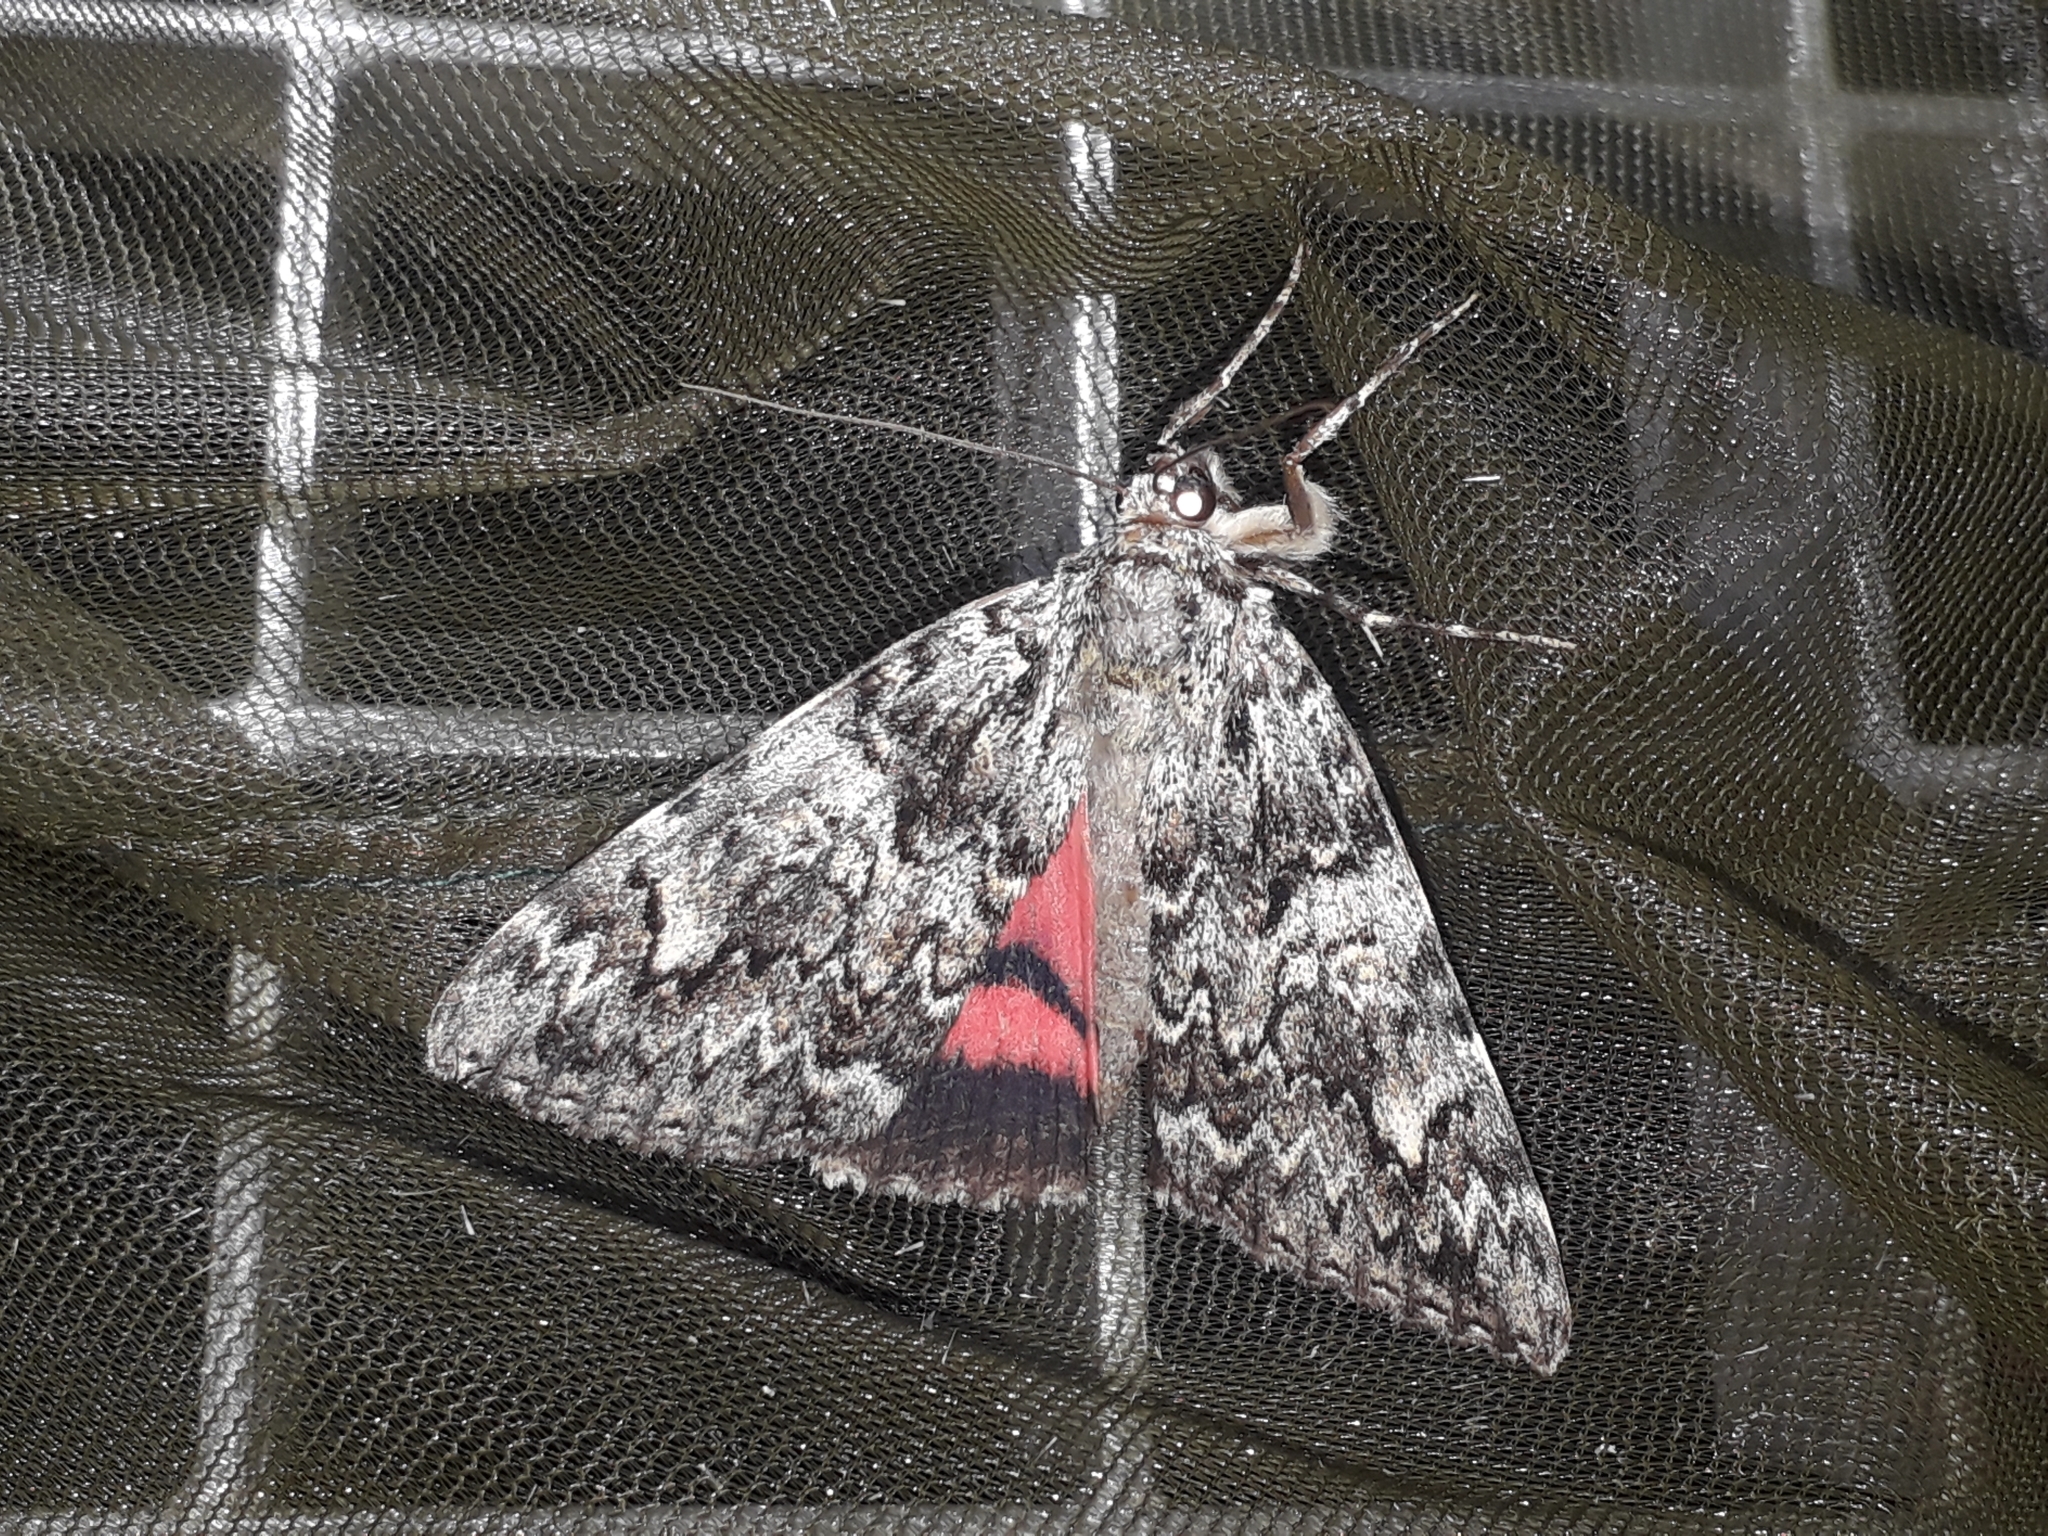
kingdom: Animalia
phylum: Arthropoda
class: Insecta
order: Lepidoptera
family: Erebidae
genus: Catocala
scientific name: Catocala promissa
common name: Light crimson underwing
